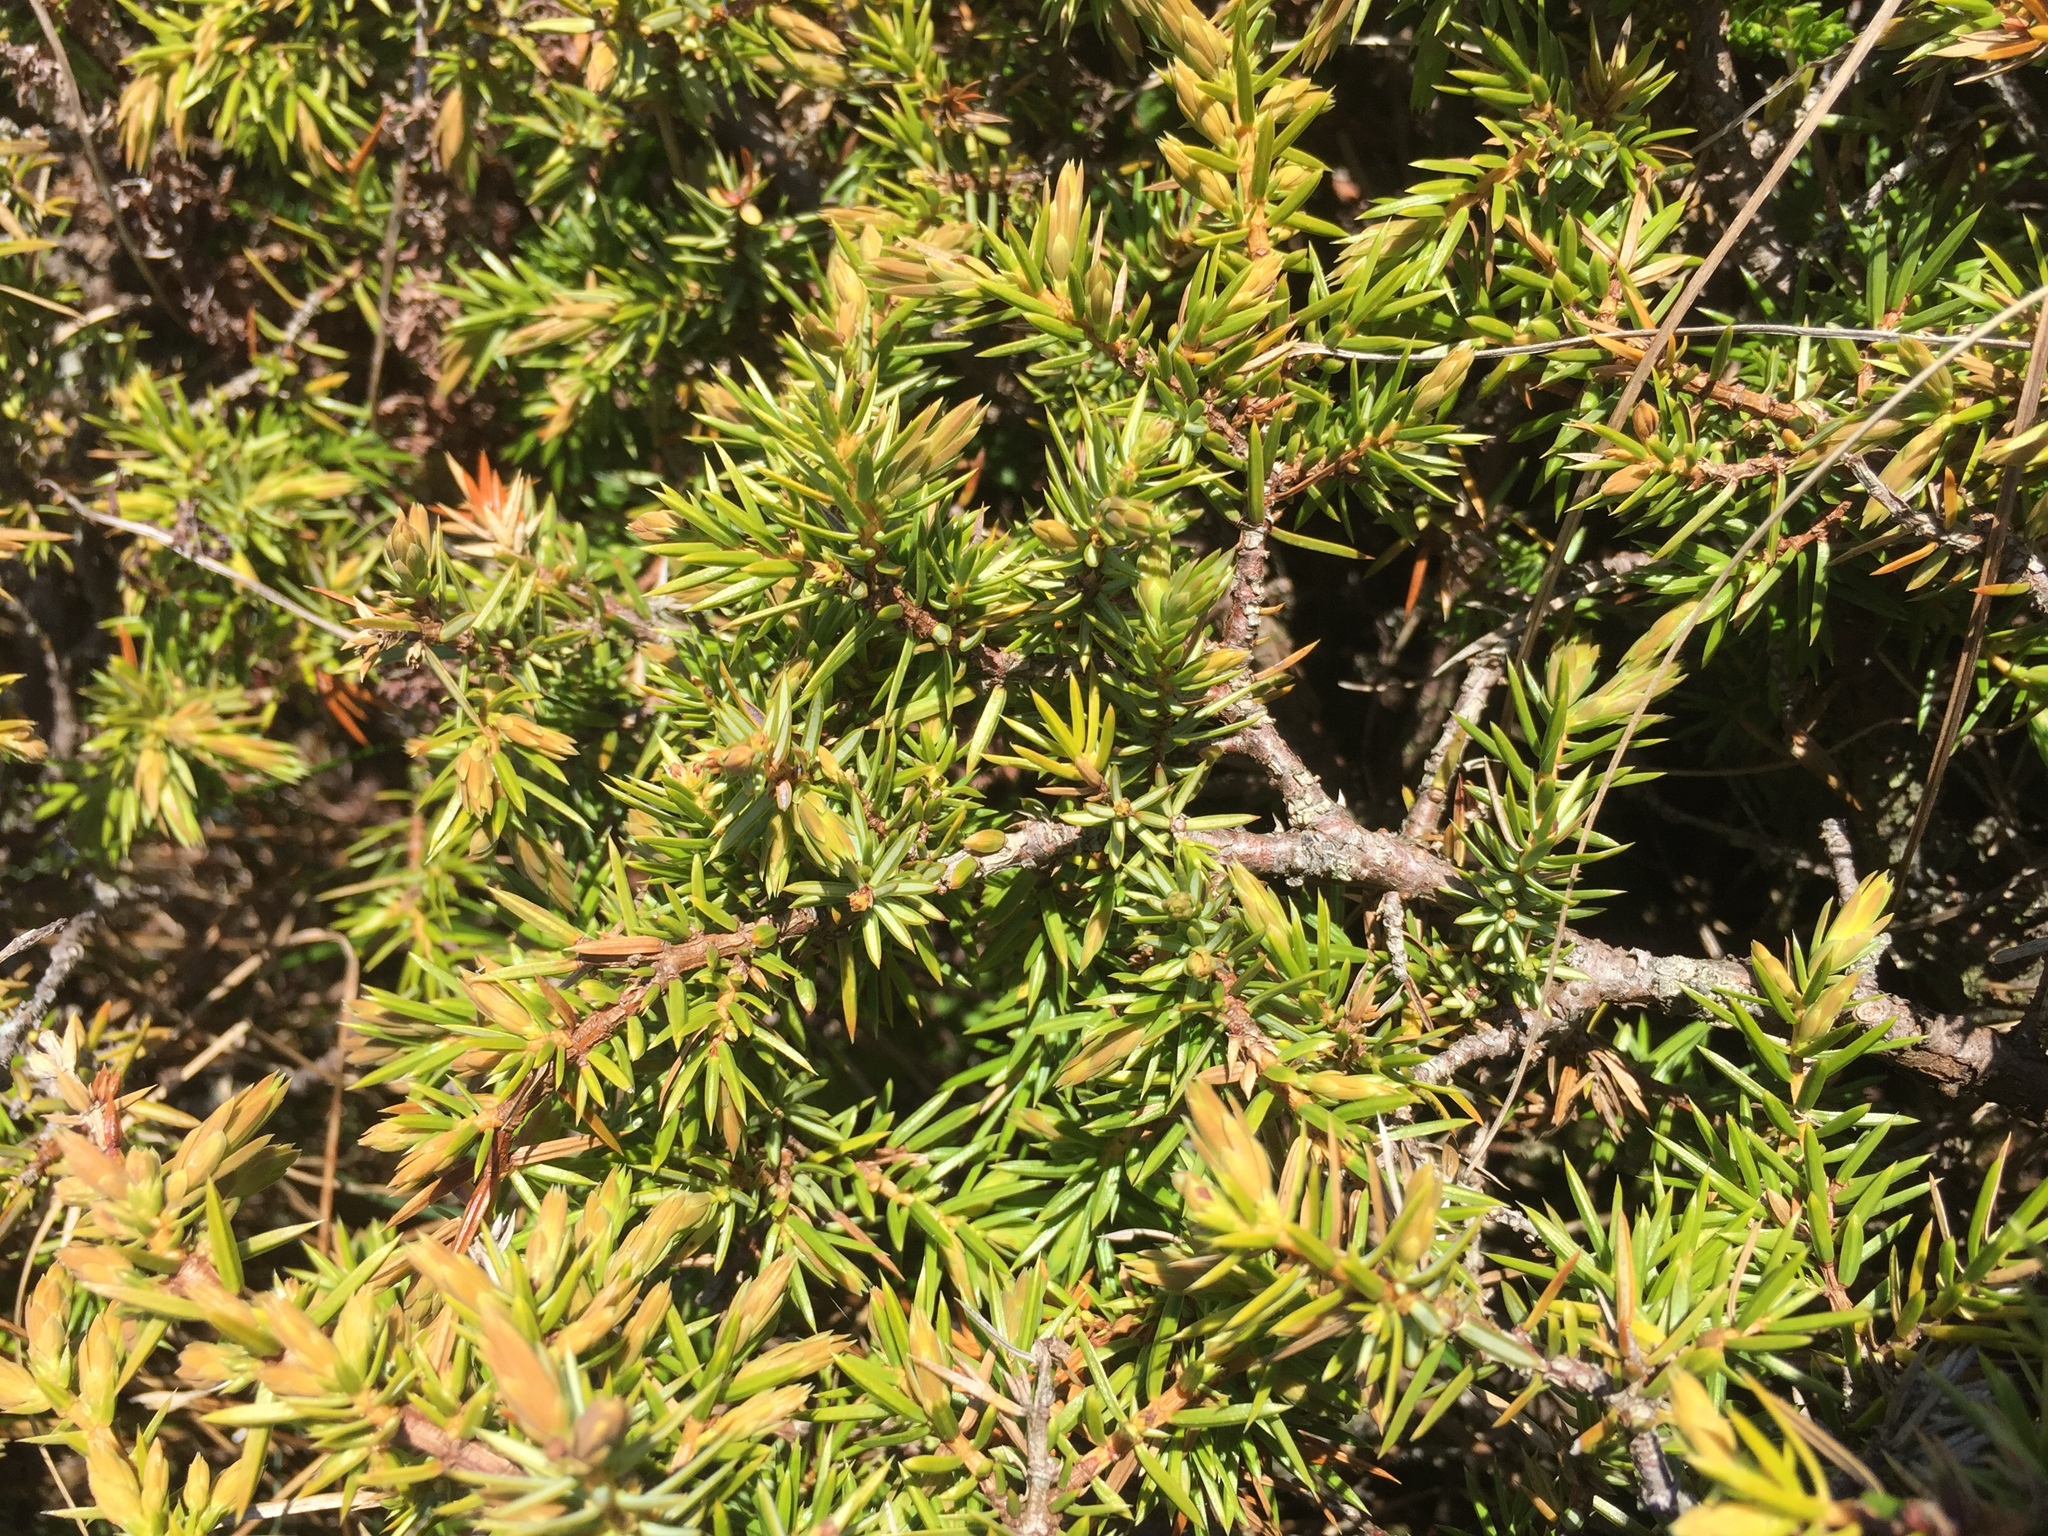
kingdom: Plantae
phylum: Tracheophyta
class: Pinopsida
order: Pinales
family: Cupressaceae
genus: Juniperus
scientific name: Juniperus communis
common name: Common juniper
